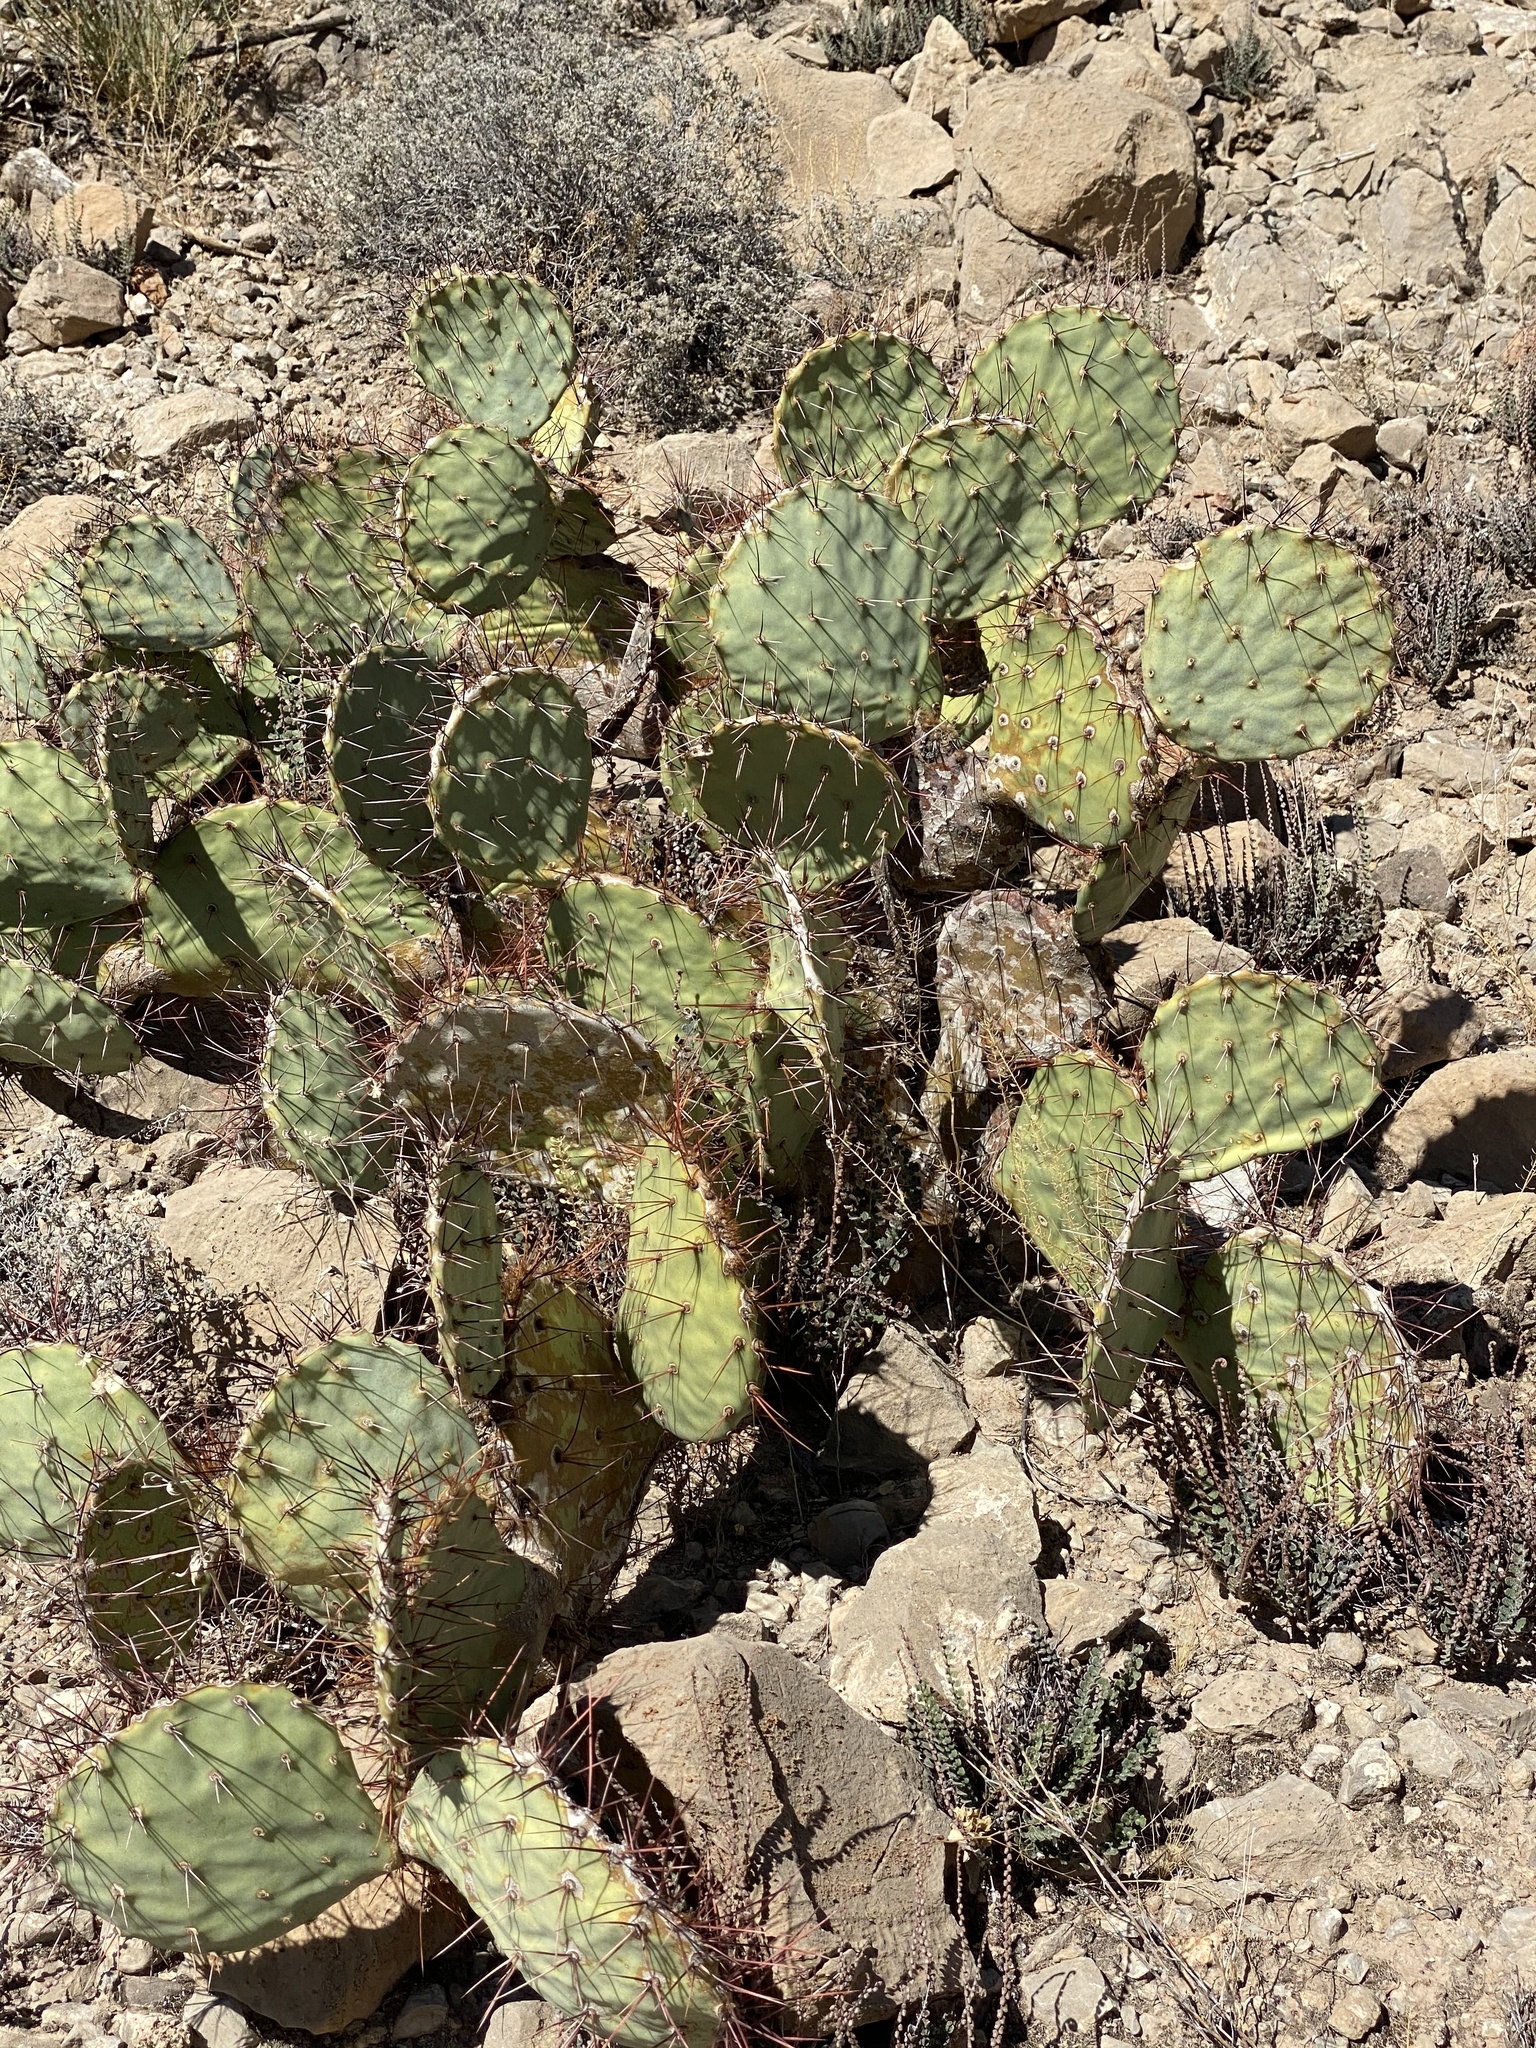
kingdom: Plantae
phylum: Tracheophyta
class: Magnoliopsida
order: Caryophyllales
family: Cactaceae
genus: Opuntia
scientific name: Opuntia engelmannii
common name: Cactus-apple
